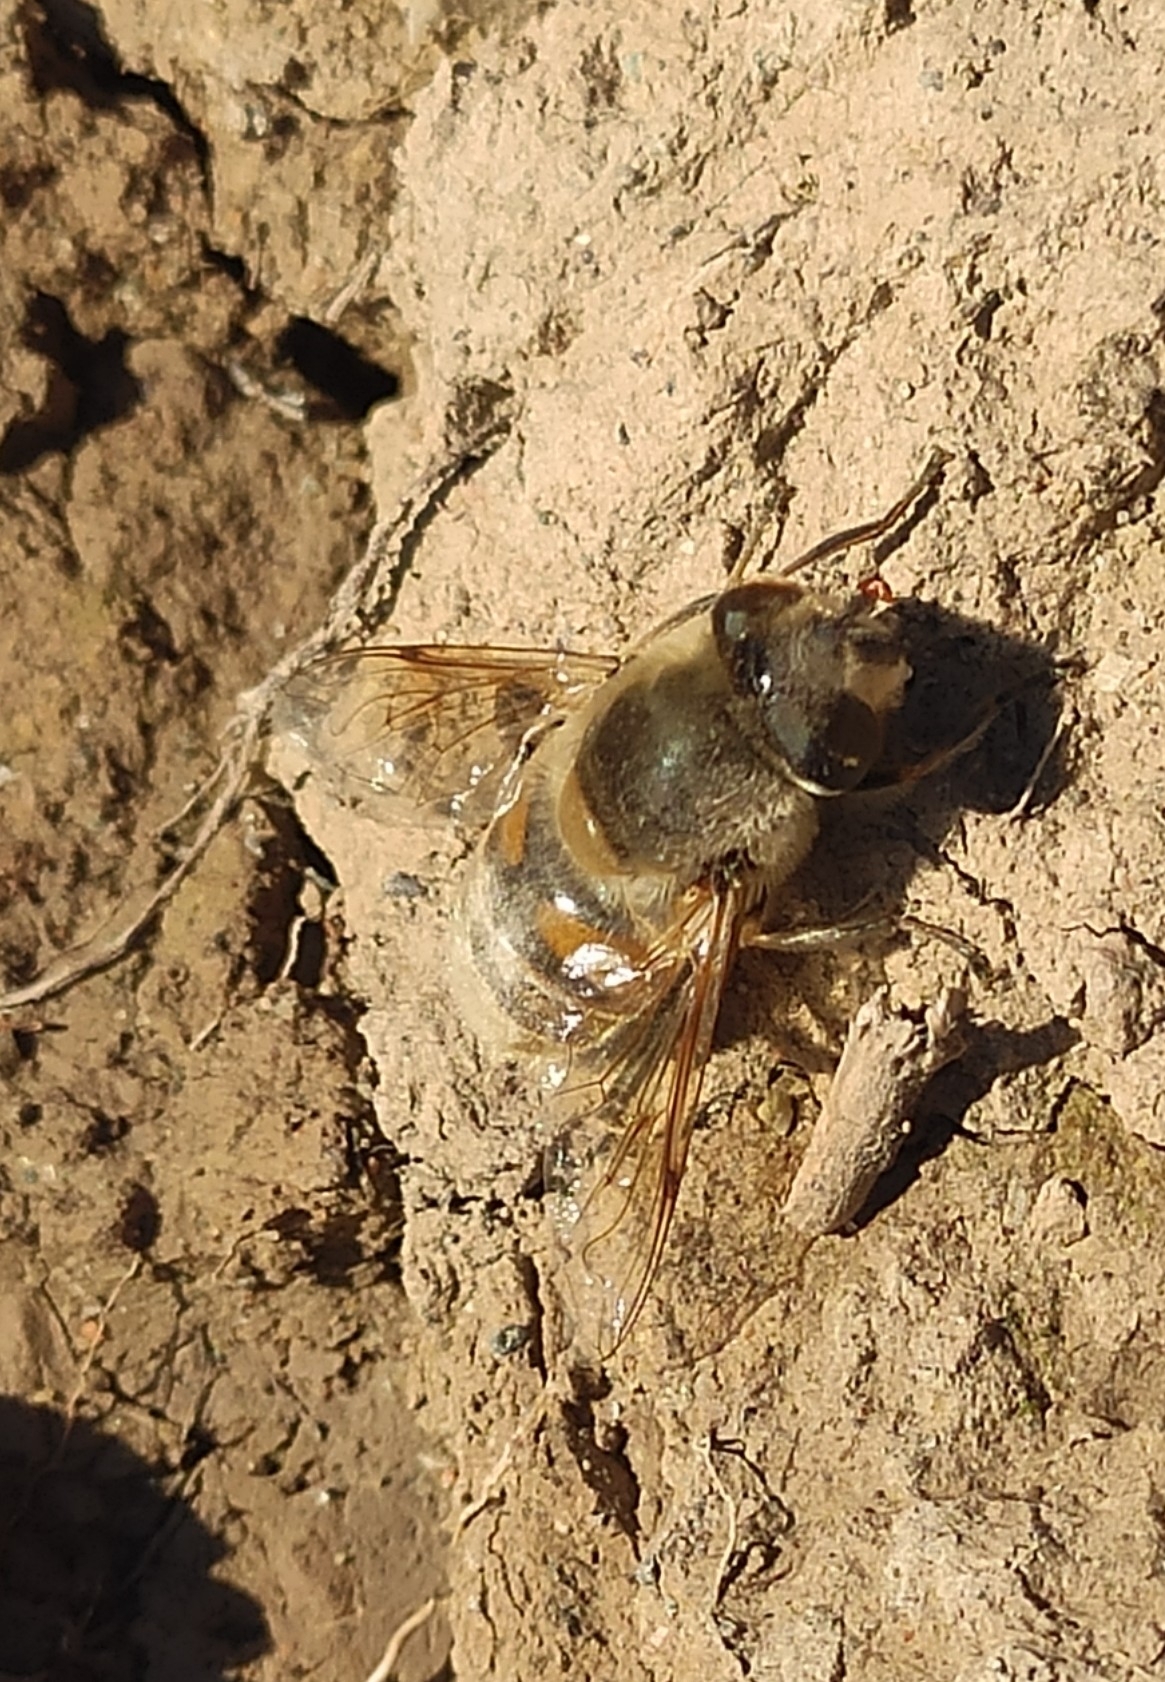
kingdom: Animalia
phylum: Arthropoda
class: Insecta
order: Diptera
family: Syrphidae
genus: Eristalis
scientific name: Eristalis tenax
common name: Drone fly
